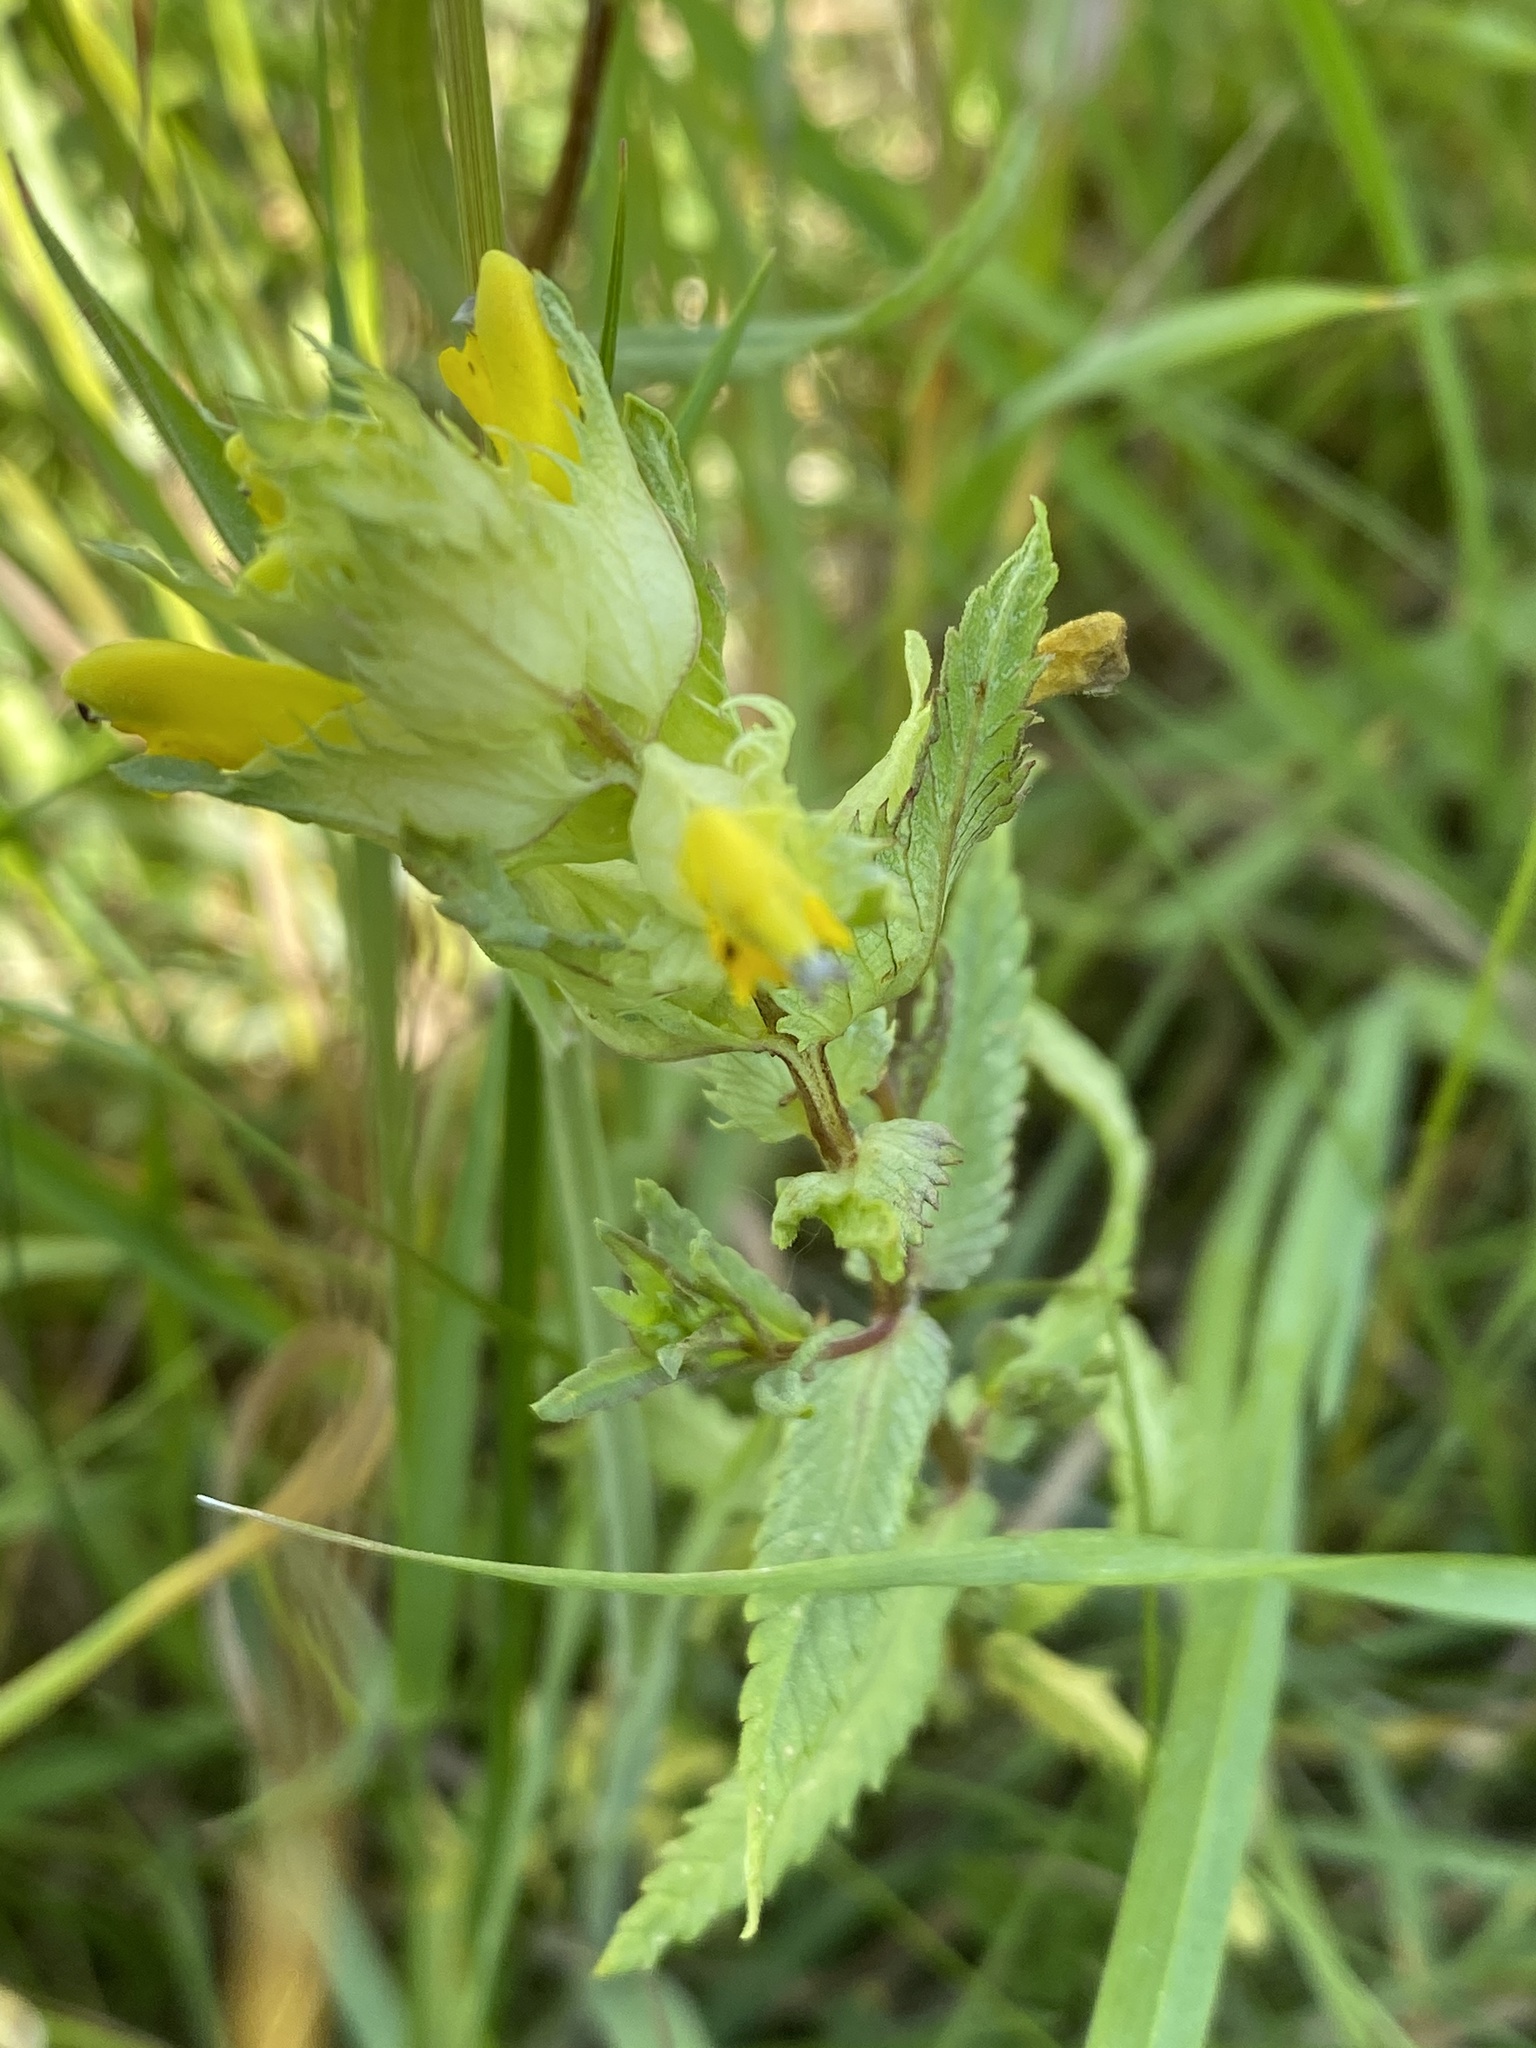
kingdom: Plantae
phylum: Tracheophyta
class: Magnoliopsida
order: Lamiales
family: Orobanchaceae
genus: Rhinanthus
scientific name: Rhinanthus serotinus
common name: Late-flowering yellow rattle
